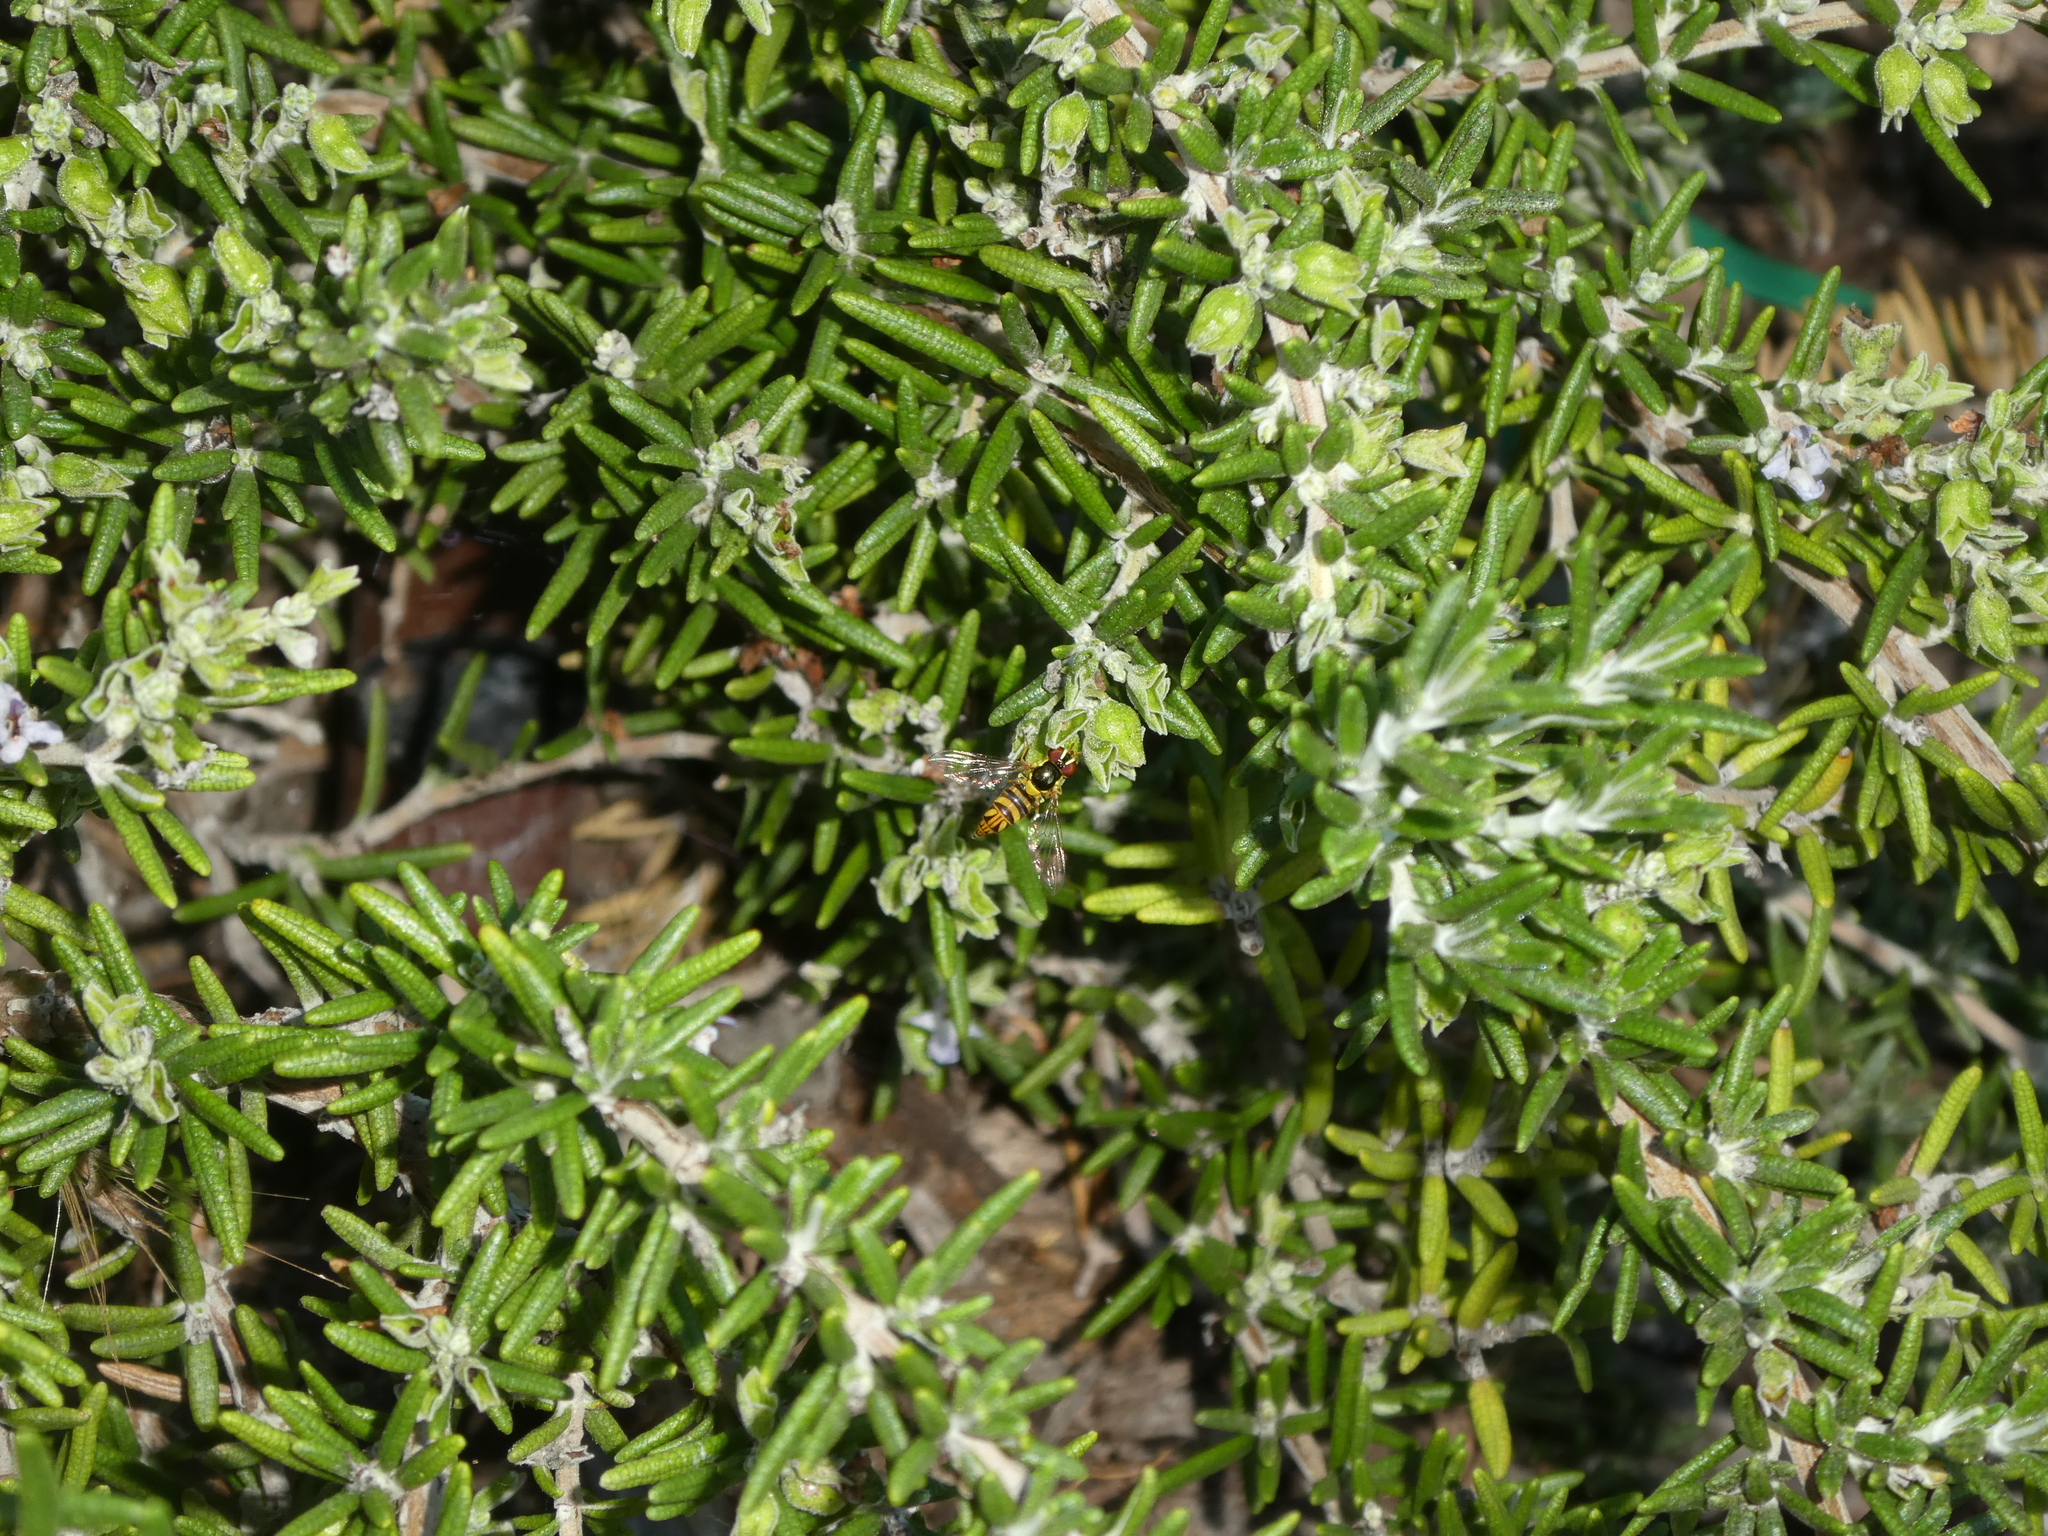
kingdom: Animalia
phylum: Arthropoda
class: Insecta
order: Diptera
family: Syrphidae
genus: Allograpta
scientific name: Allograpta obliqua
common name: Common oblique syrphid
